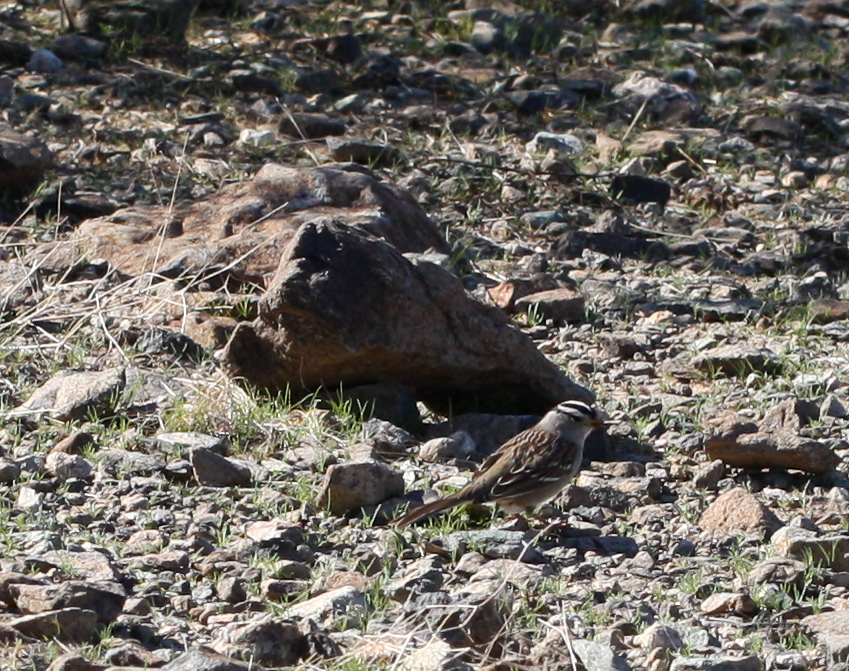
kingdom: Animalia
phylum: Chordata
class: Aves
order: Passeriformes
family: Passerellidae
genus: Zonotrichia
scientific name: Zonotrichia leucophrys
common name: White-crowned sparrow
